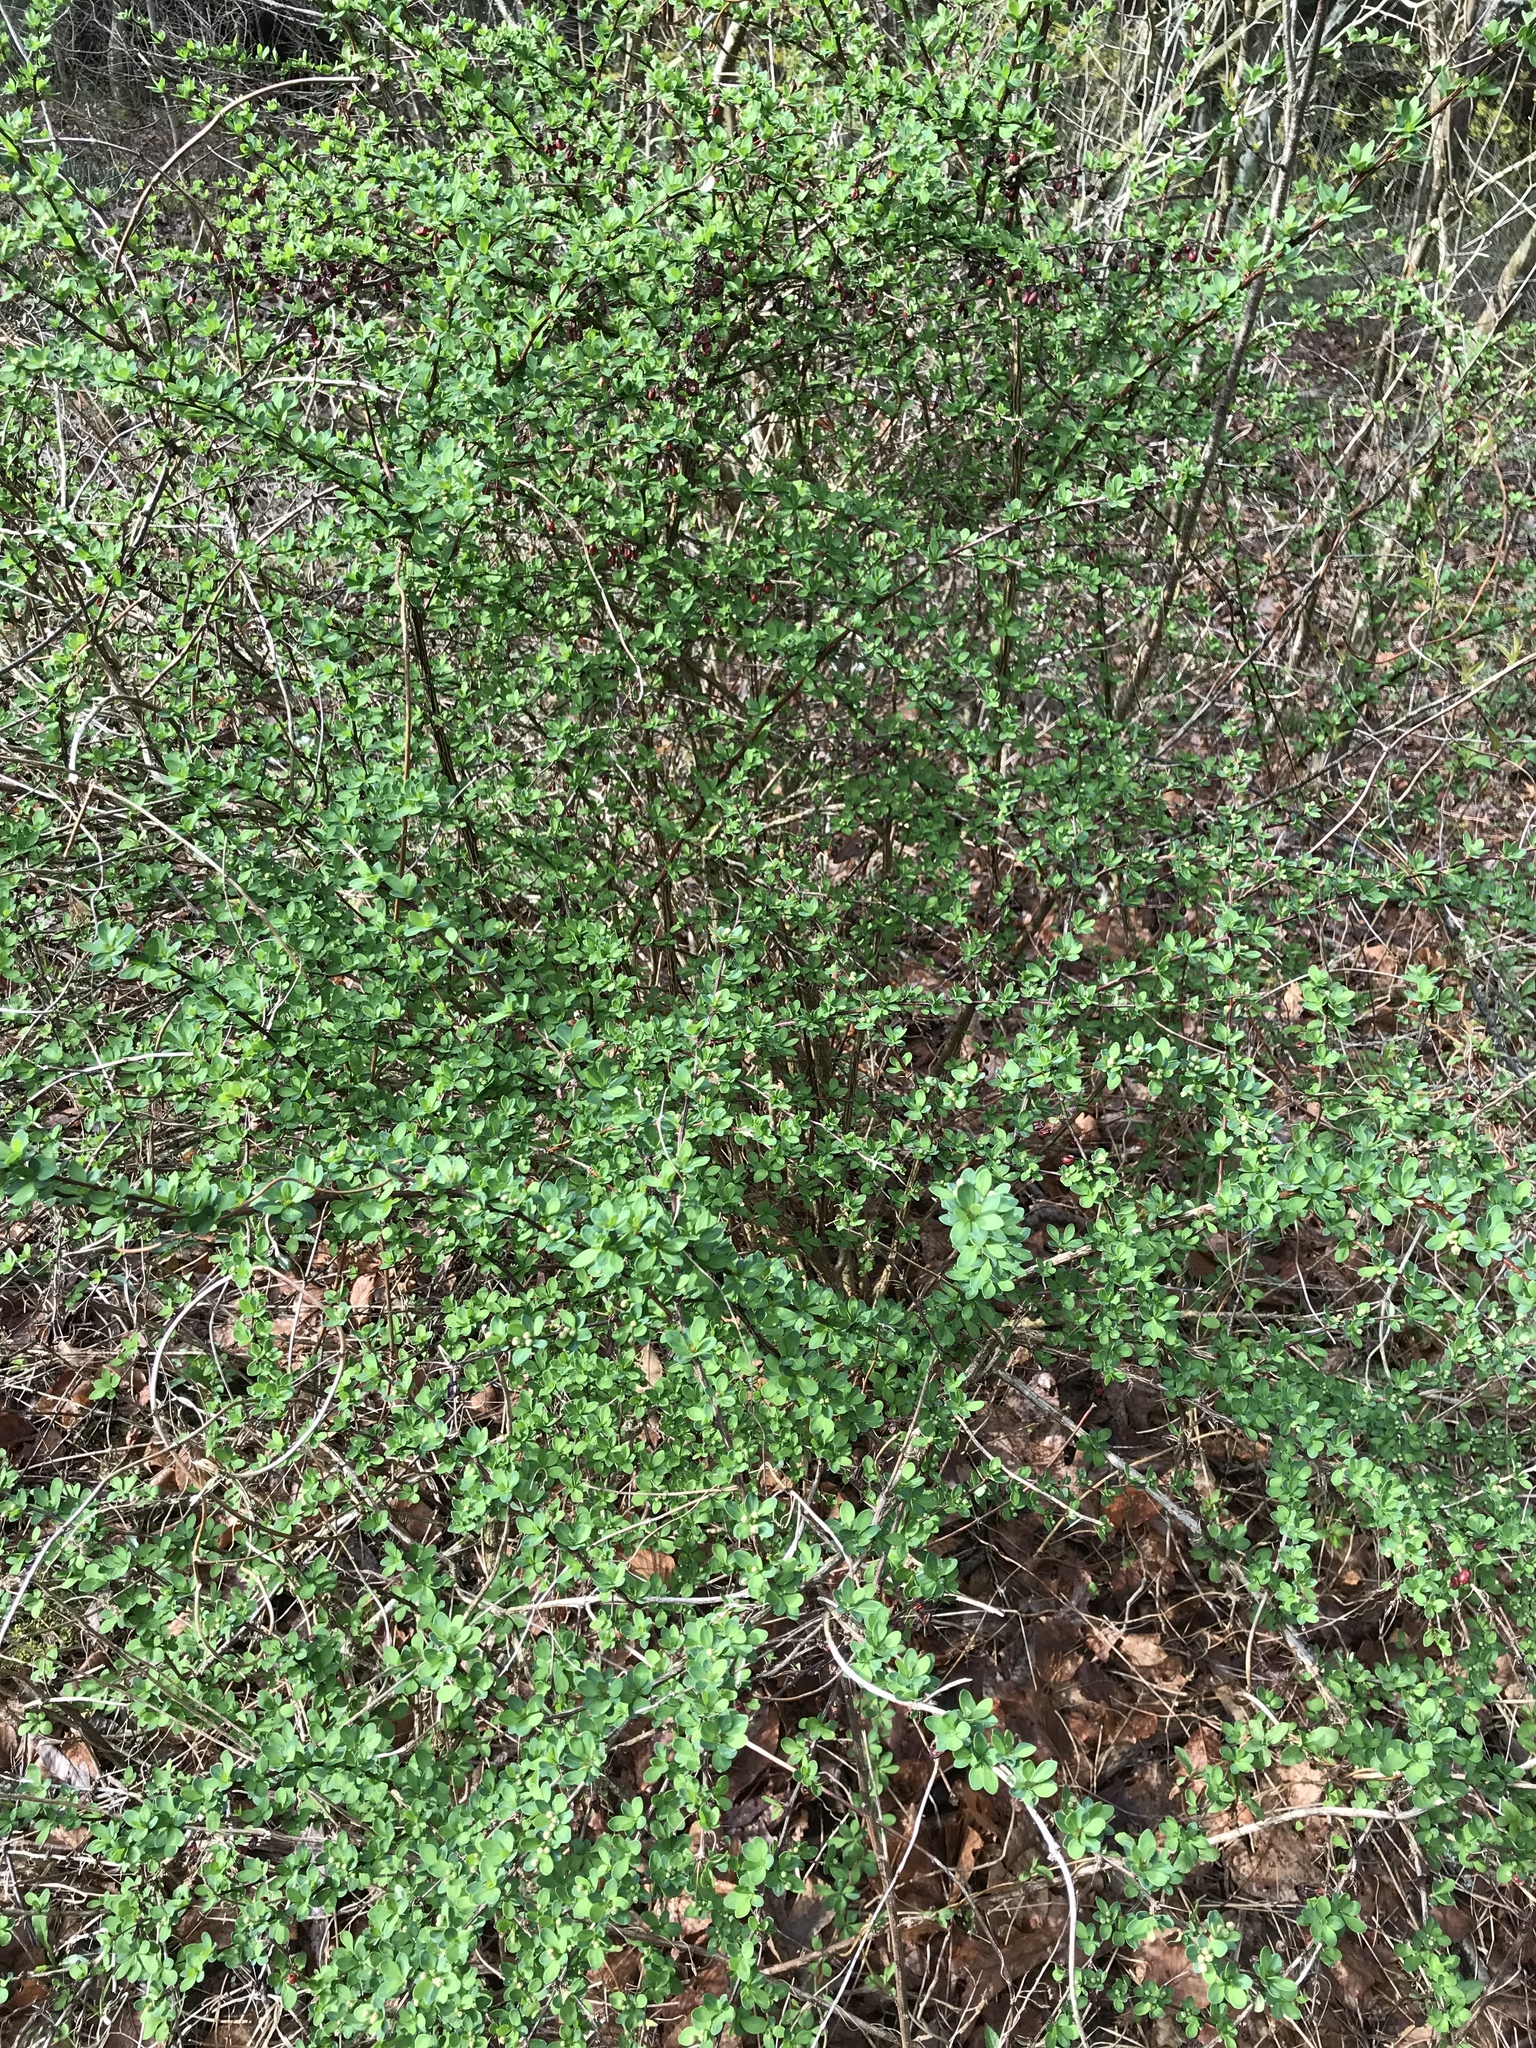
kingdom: Plantae
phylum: Tracheophyta
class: Magnoliopsida
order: Ranunculales
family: Berberidaceae
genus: Berberis
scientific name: Berberis thunbergii
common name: Japanese barberry
